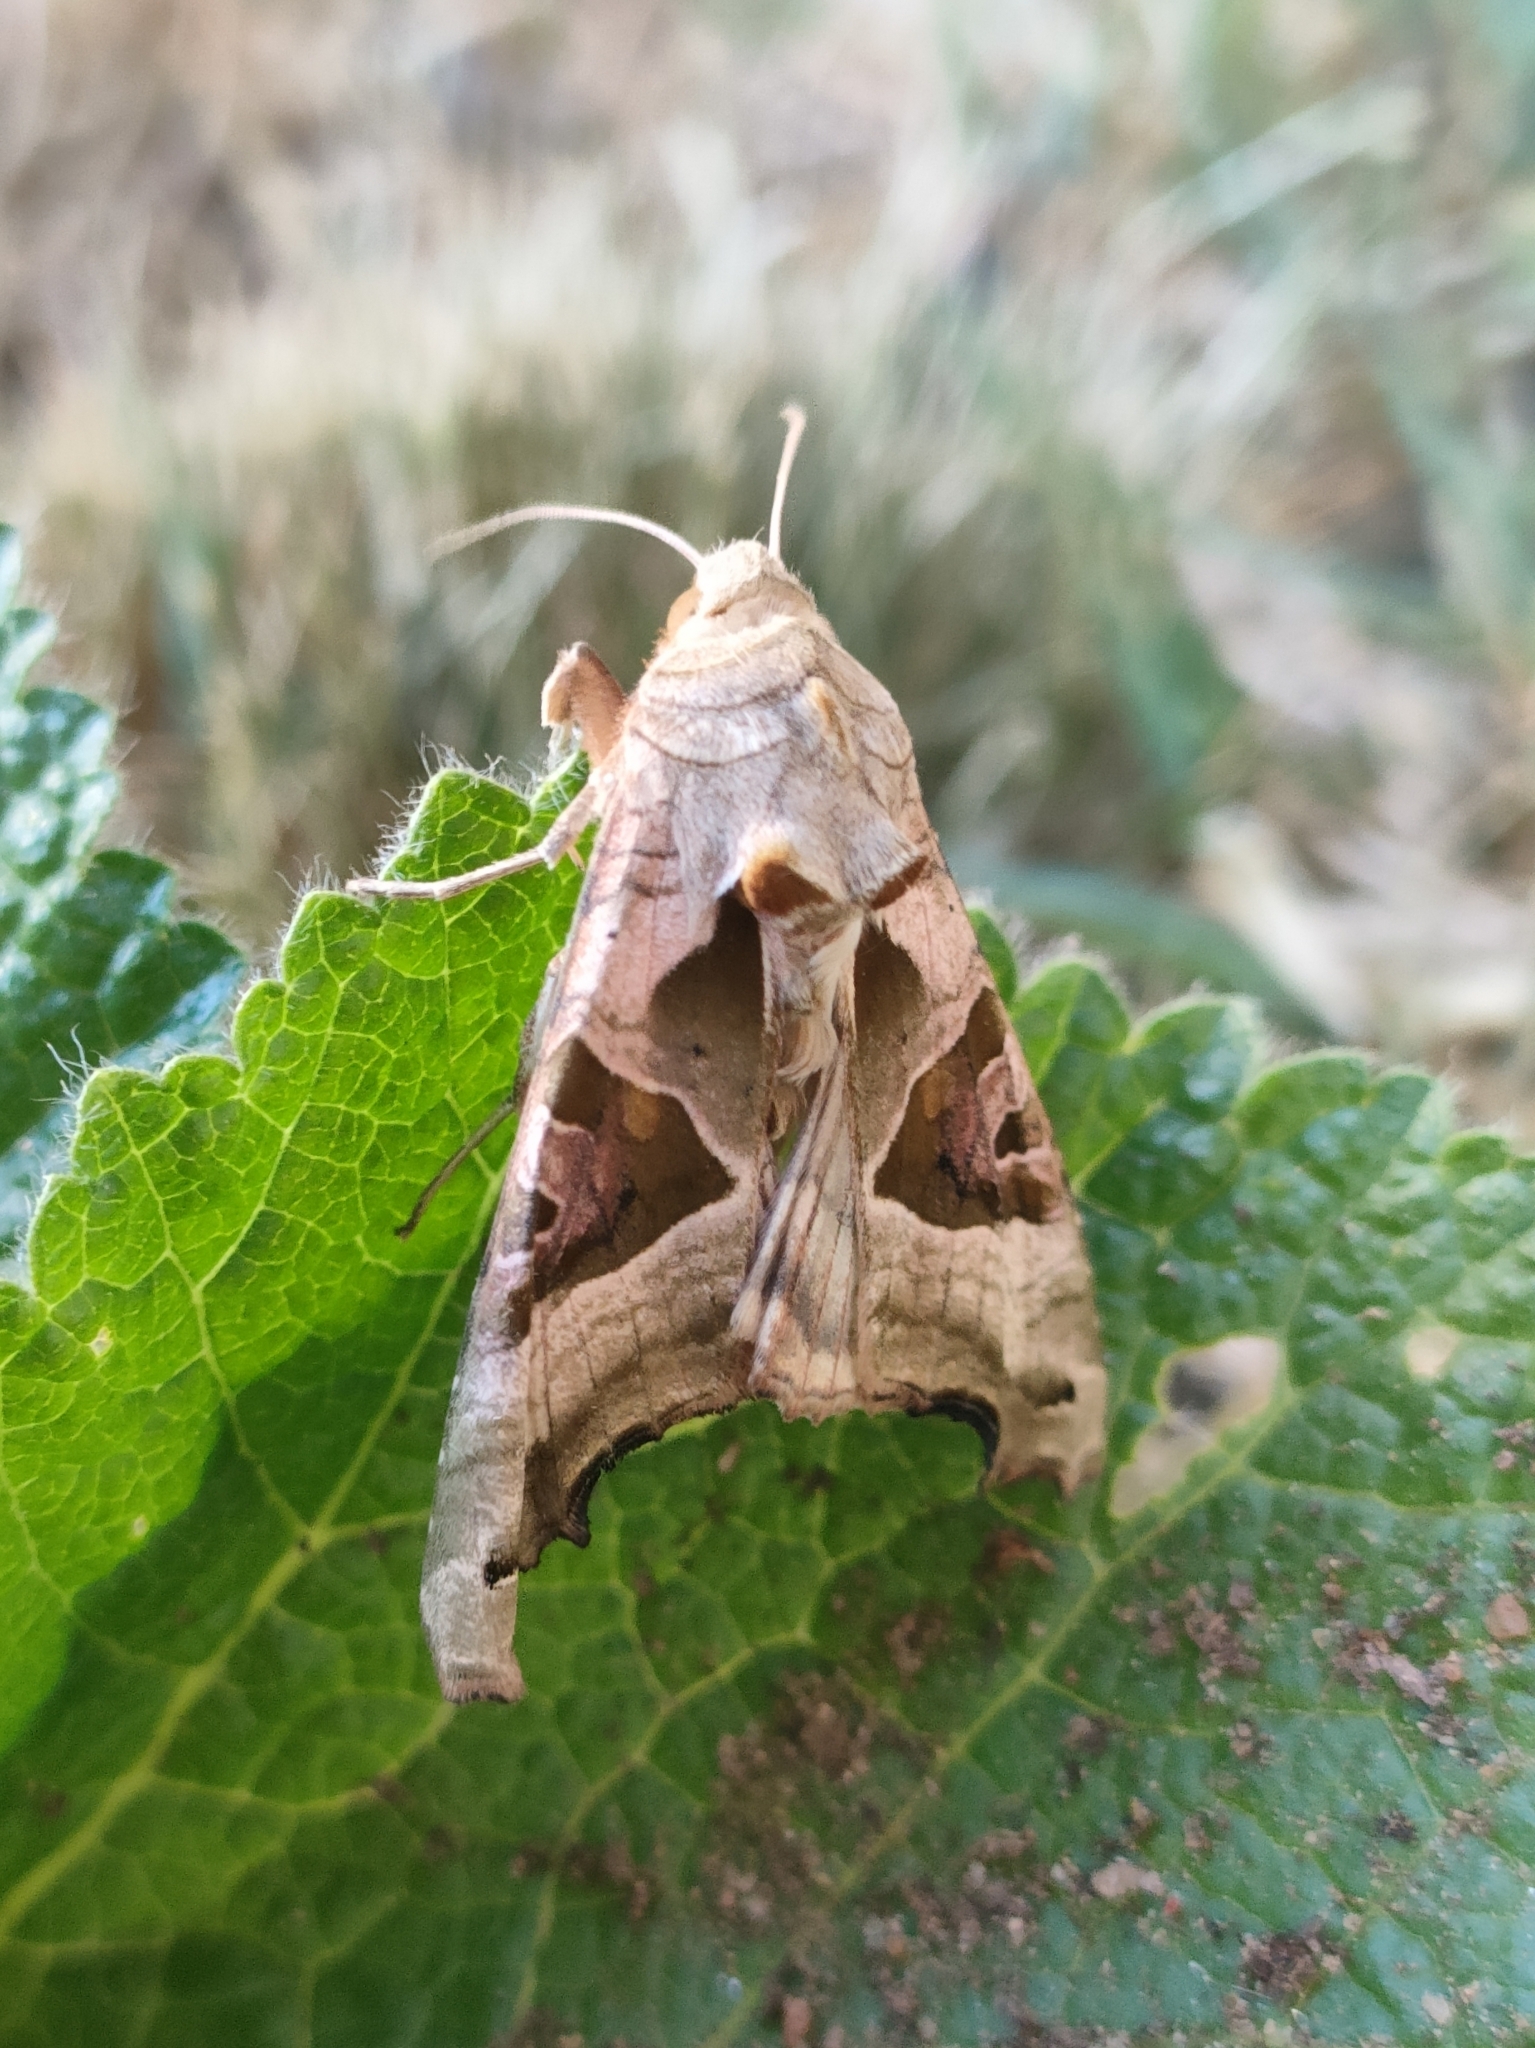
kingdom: Animalia
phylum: Arthropoda
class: Insecta
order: Lepidoptera
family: Noctuidae
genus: Phlogophora
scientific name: Phlogophora meticulosa
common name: Angle shades
